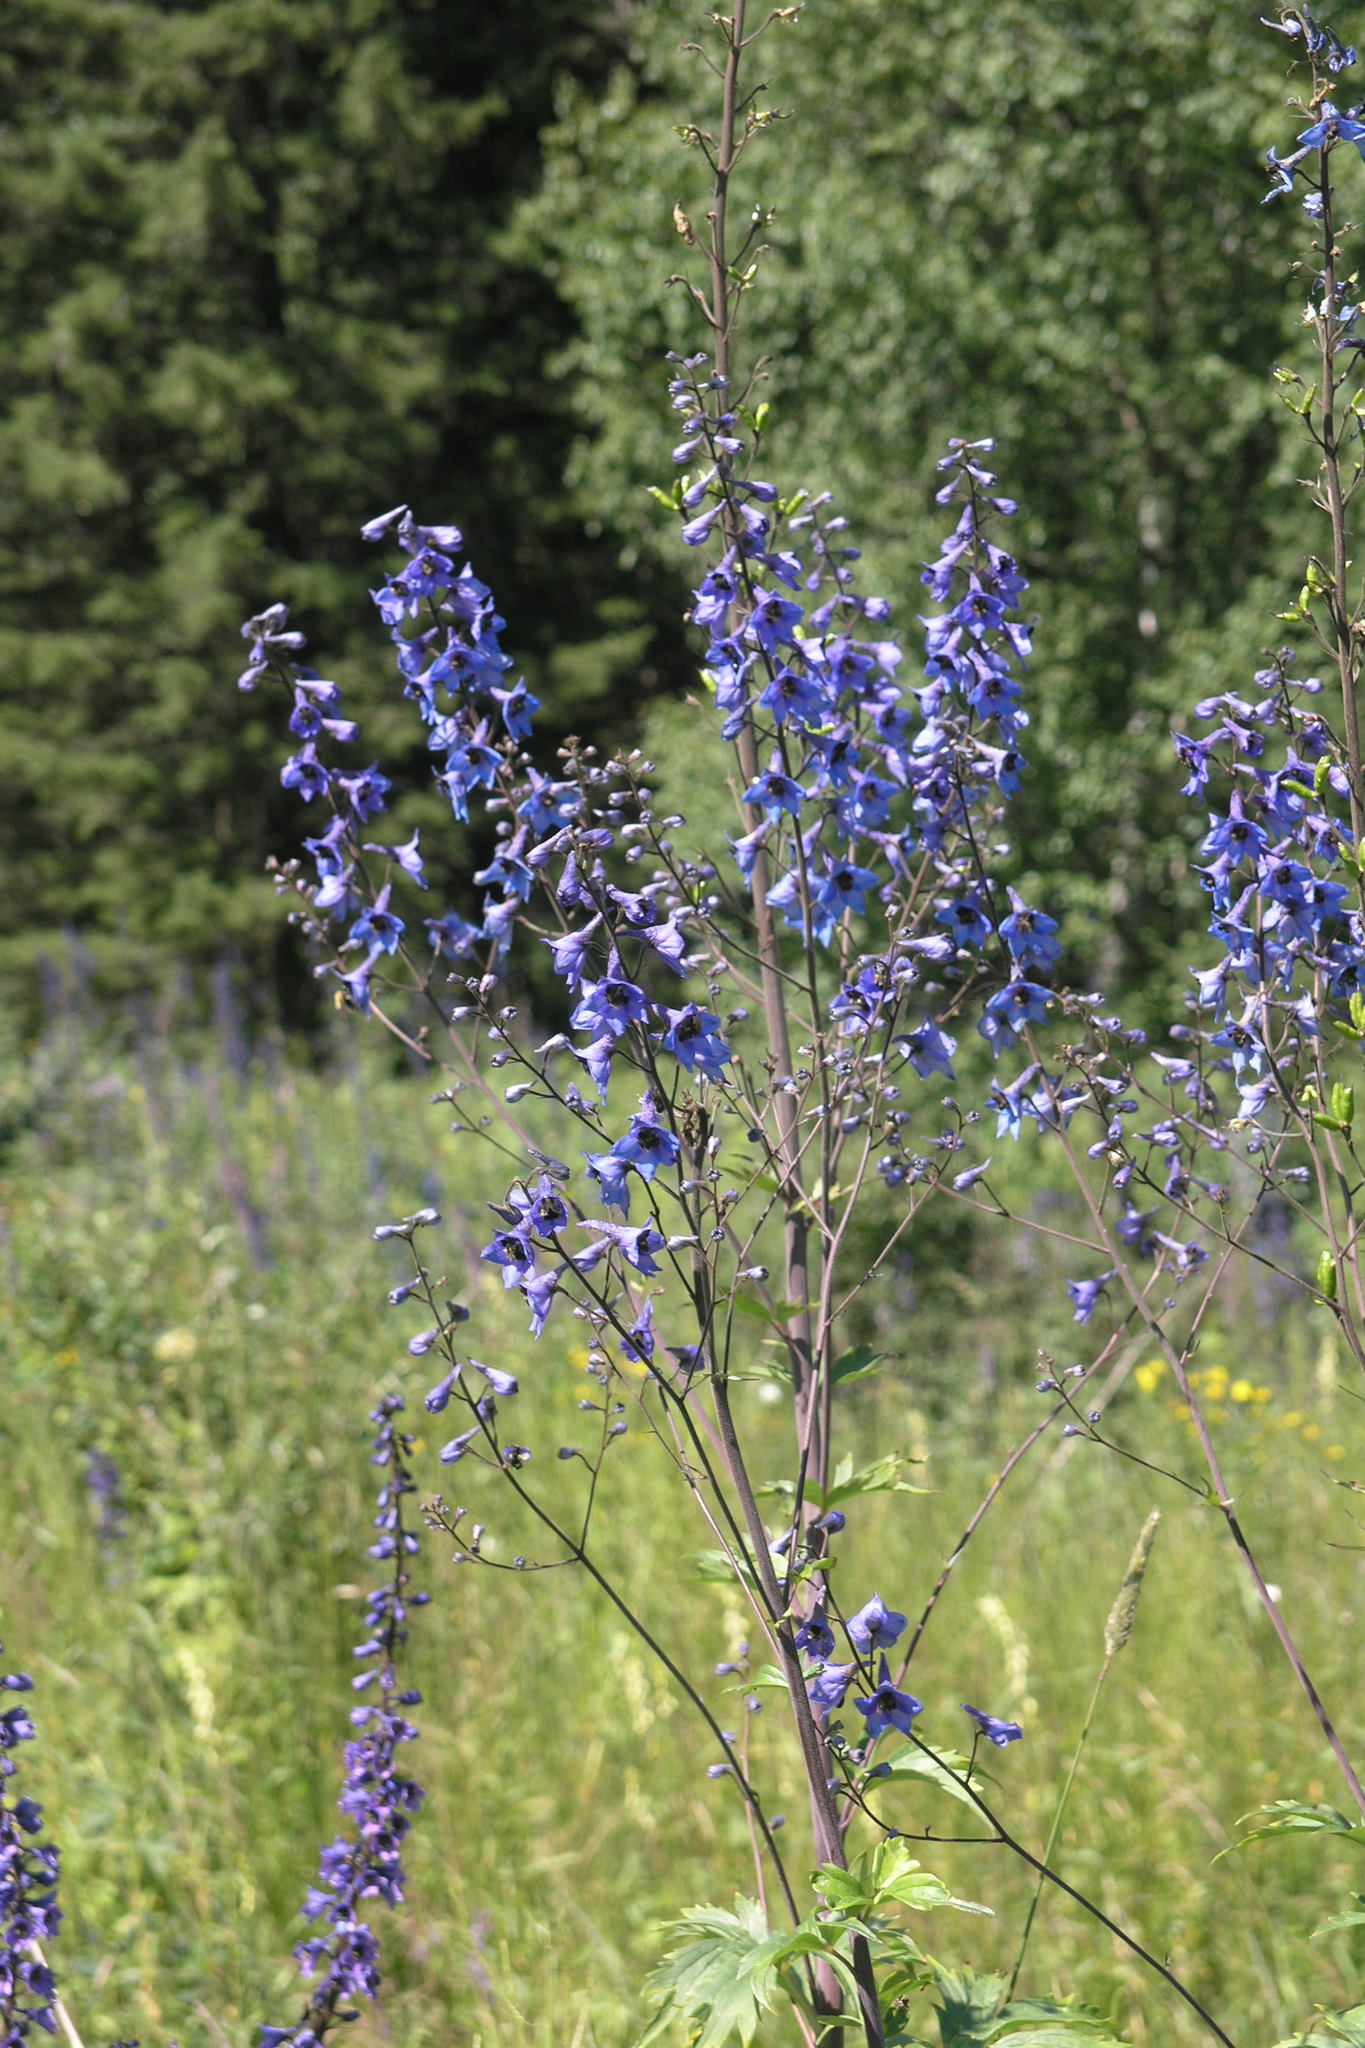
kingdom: Plantae
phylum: Tracheophyta
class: Magnoliopsida
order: Ranunculales
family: Ranunculaceae
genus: Delphinium
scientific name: Delphinium elatum
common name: Candle larkspur
